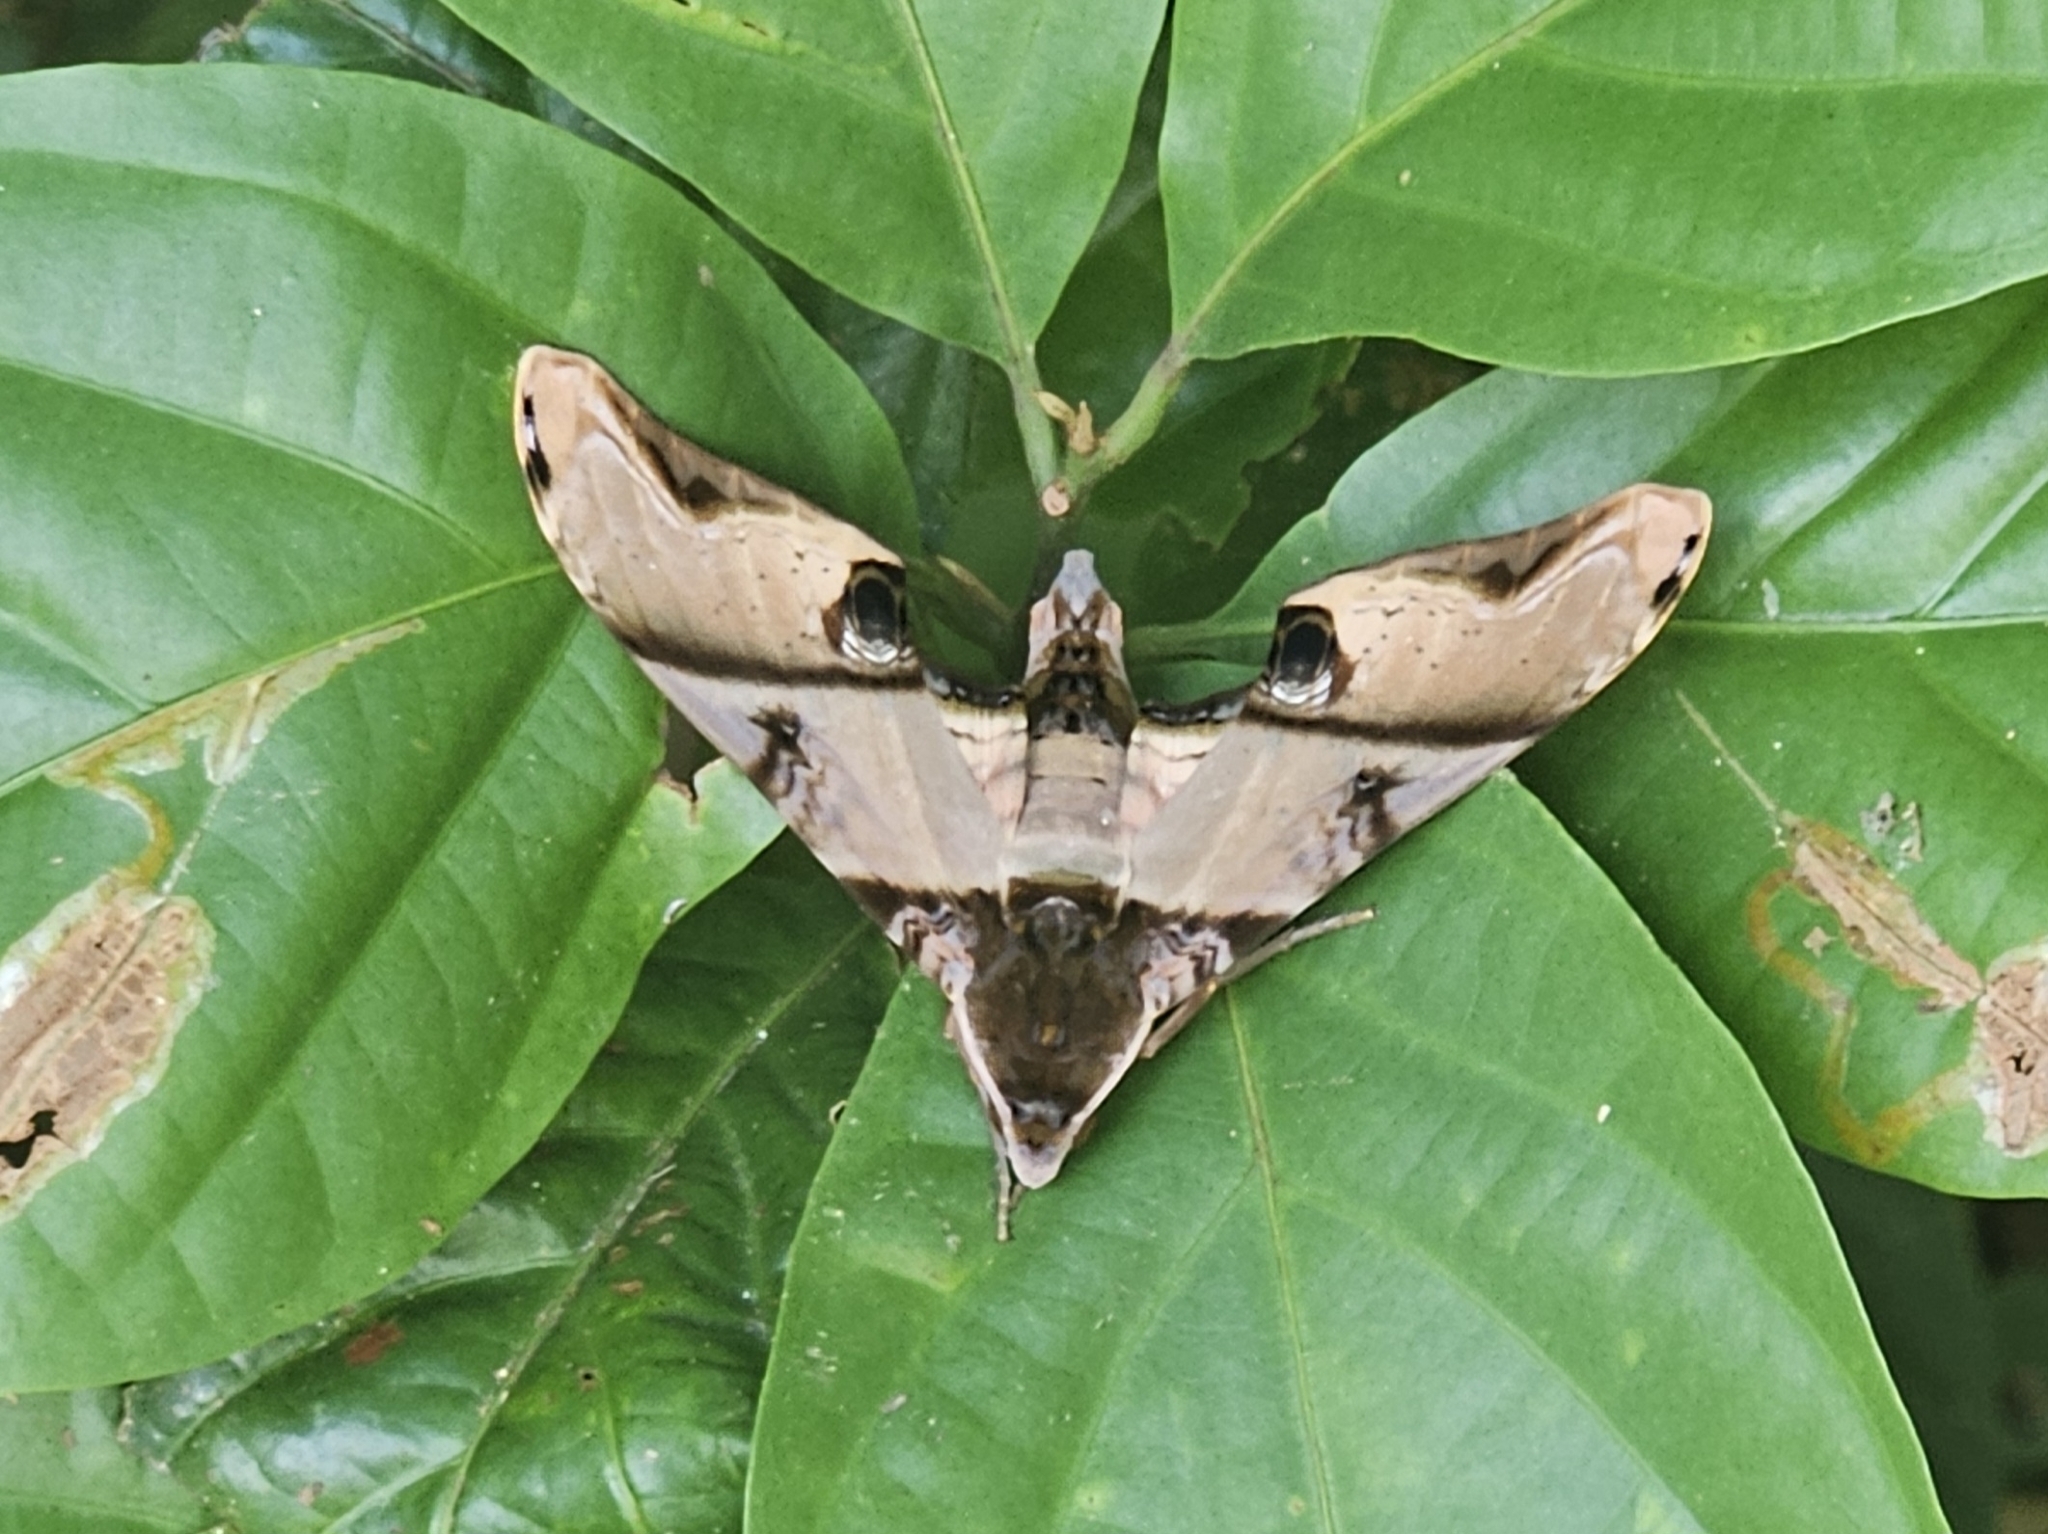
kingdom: Animalia
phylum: Arthropoda
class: Insecta
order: Lepidoptera
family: Sphingidae
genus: Amplypterus
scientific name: Amplypterus panopus
